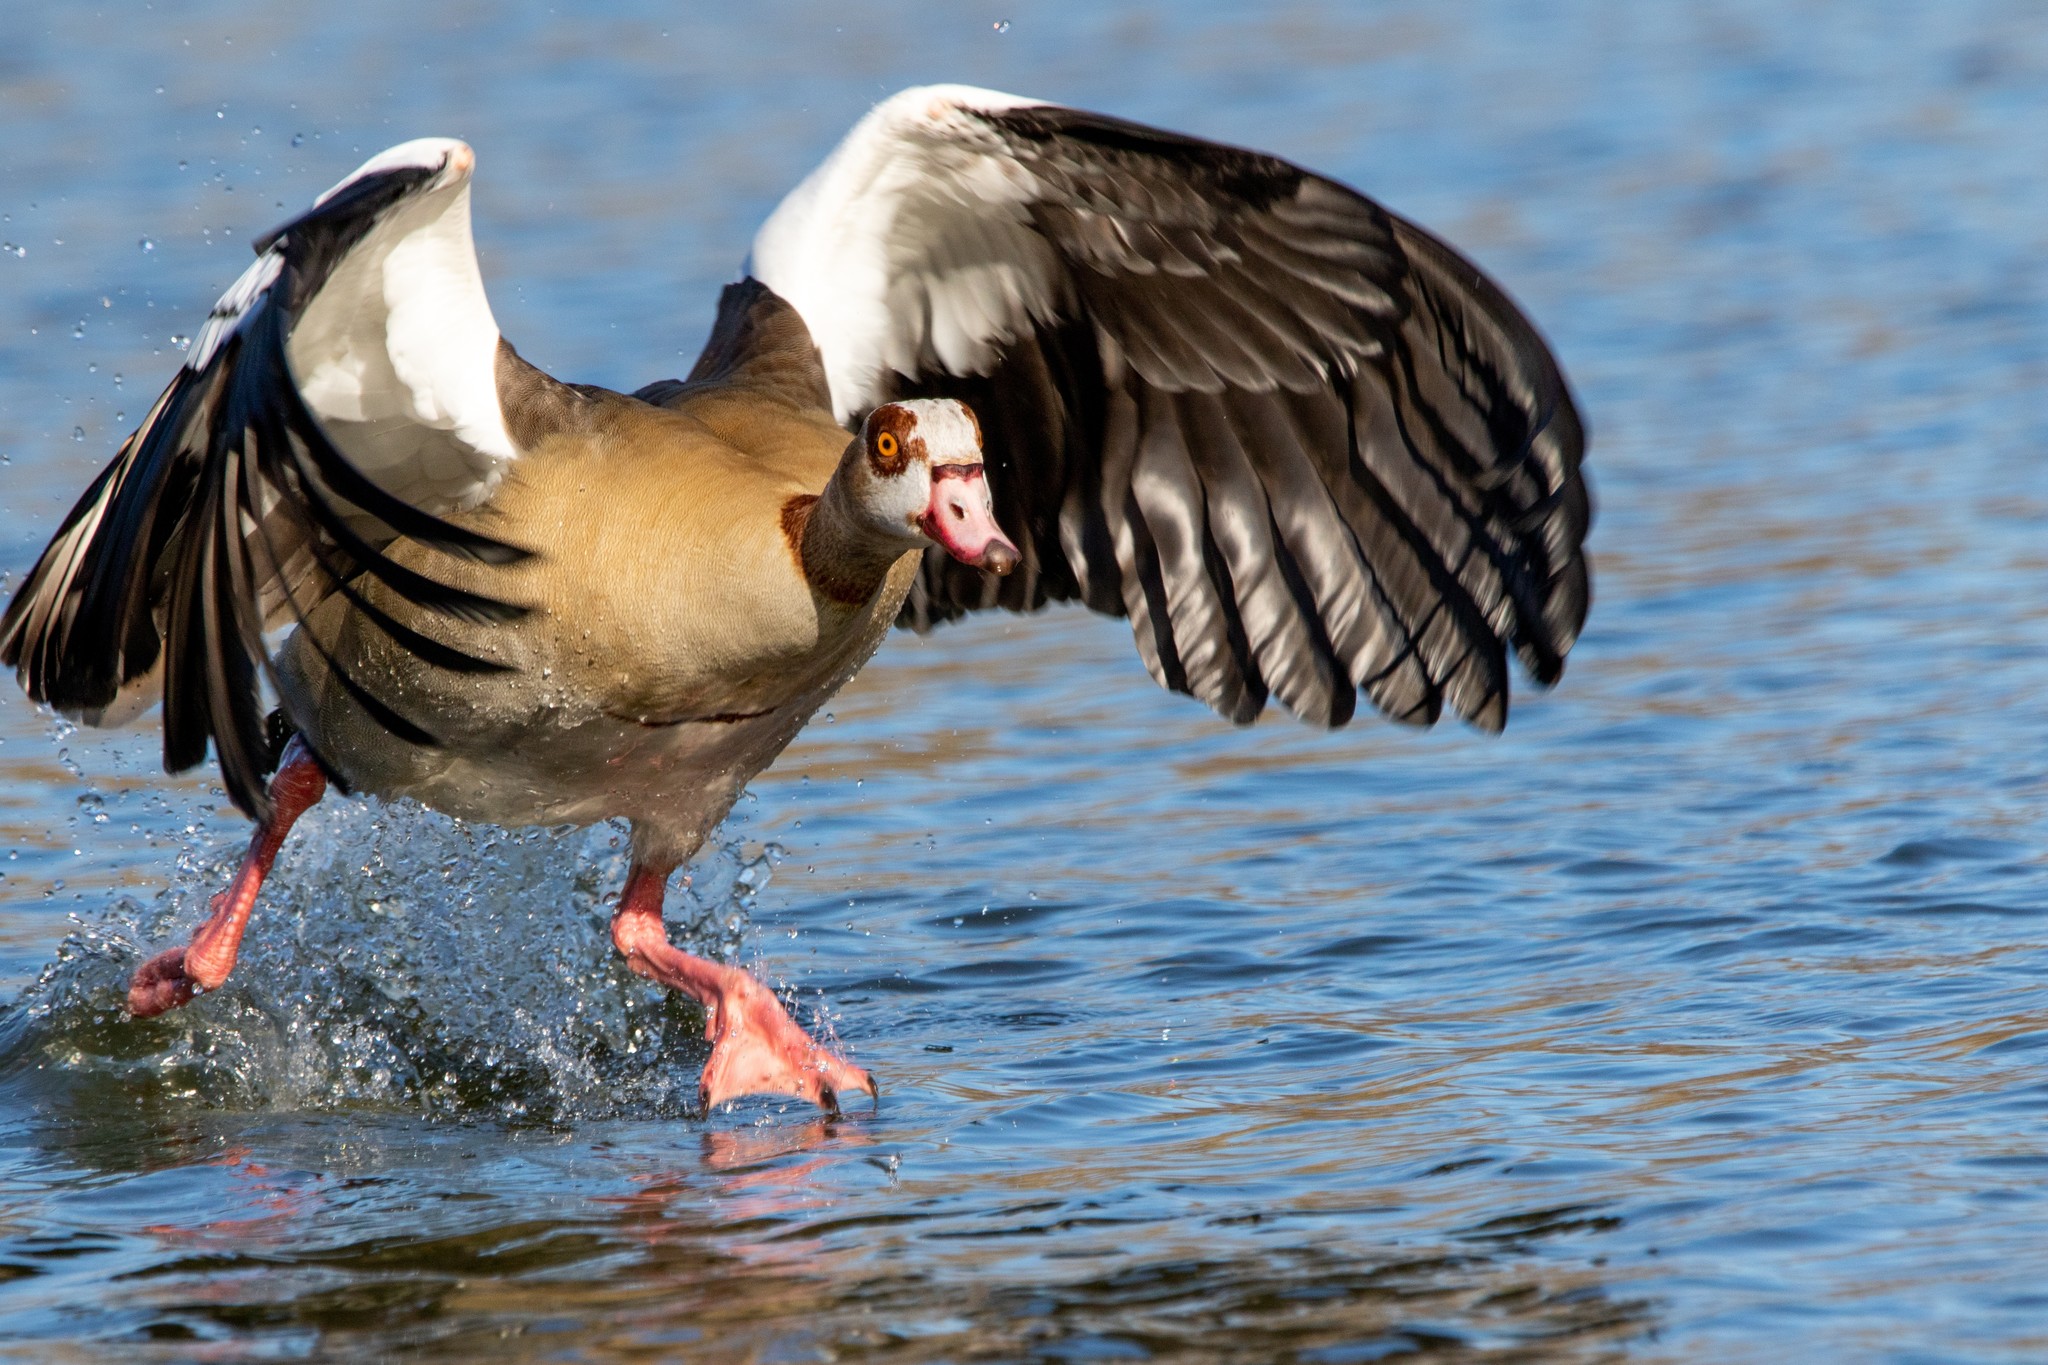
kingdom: Animalia
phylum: Chordata
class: Aves
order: Anseriformes
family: Anatidae
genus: Alopochen
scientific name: Alopochen aegyptiaca
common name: Egyptian goose
